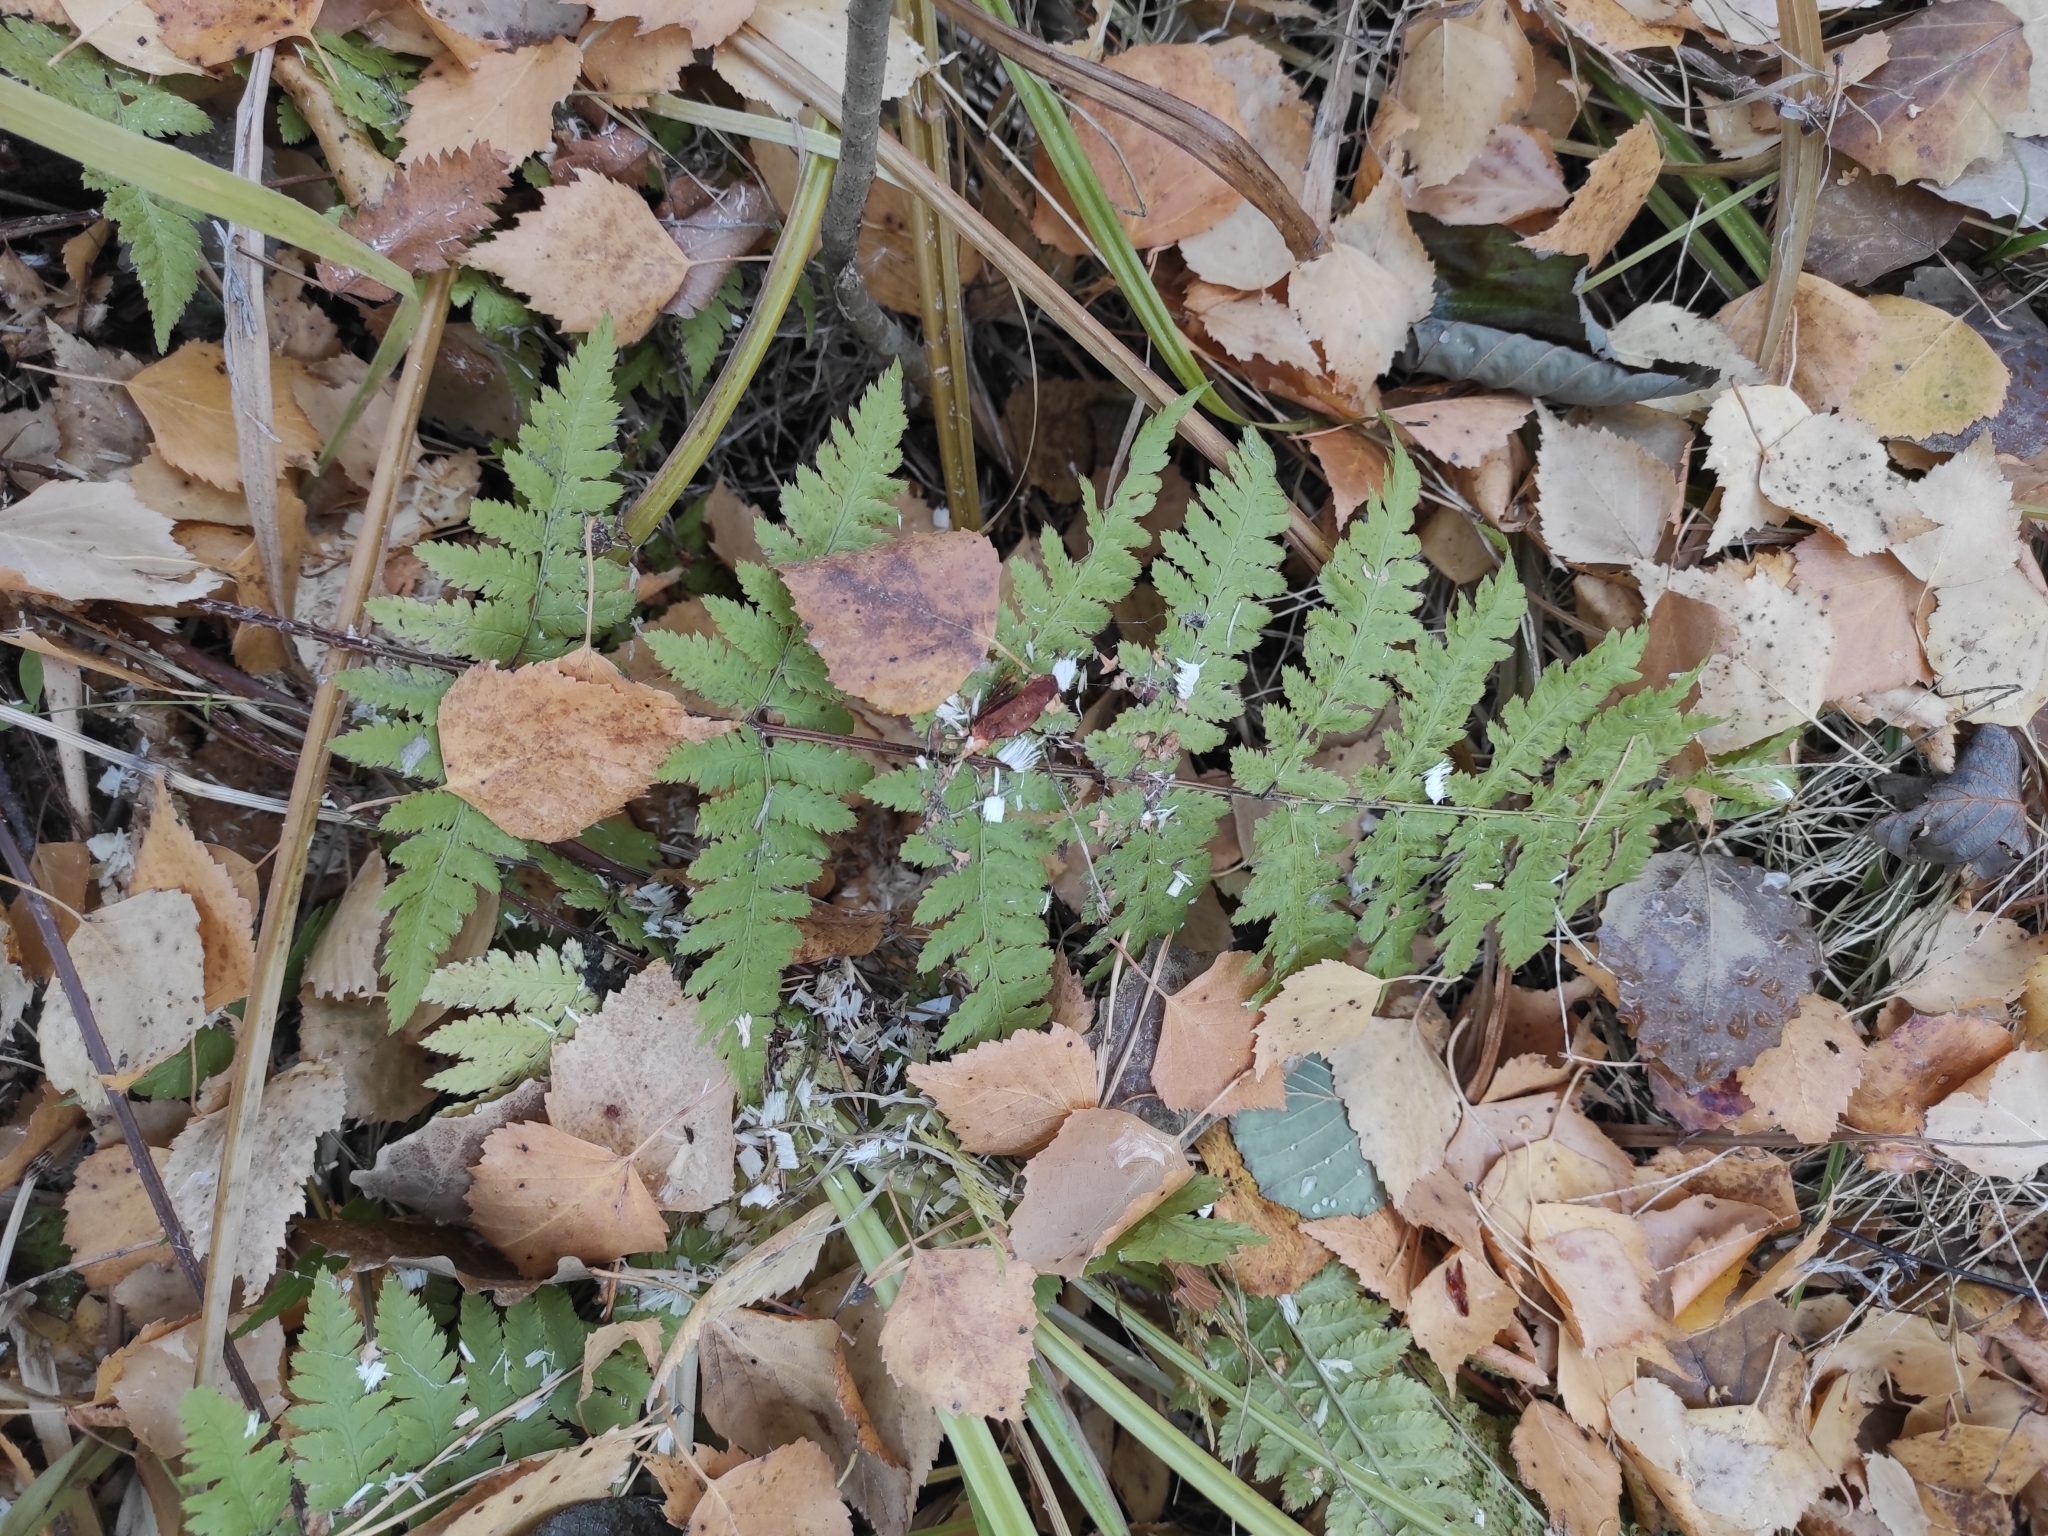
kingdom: Plantae
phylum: Tracheophyta
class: Polypodiopsida
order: Polypodiales
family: Dryopteridaceae
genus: Dryopteris
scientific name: Dryopteris carthusiana
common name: Narrow buckler-fern
